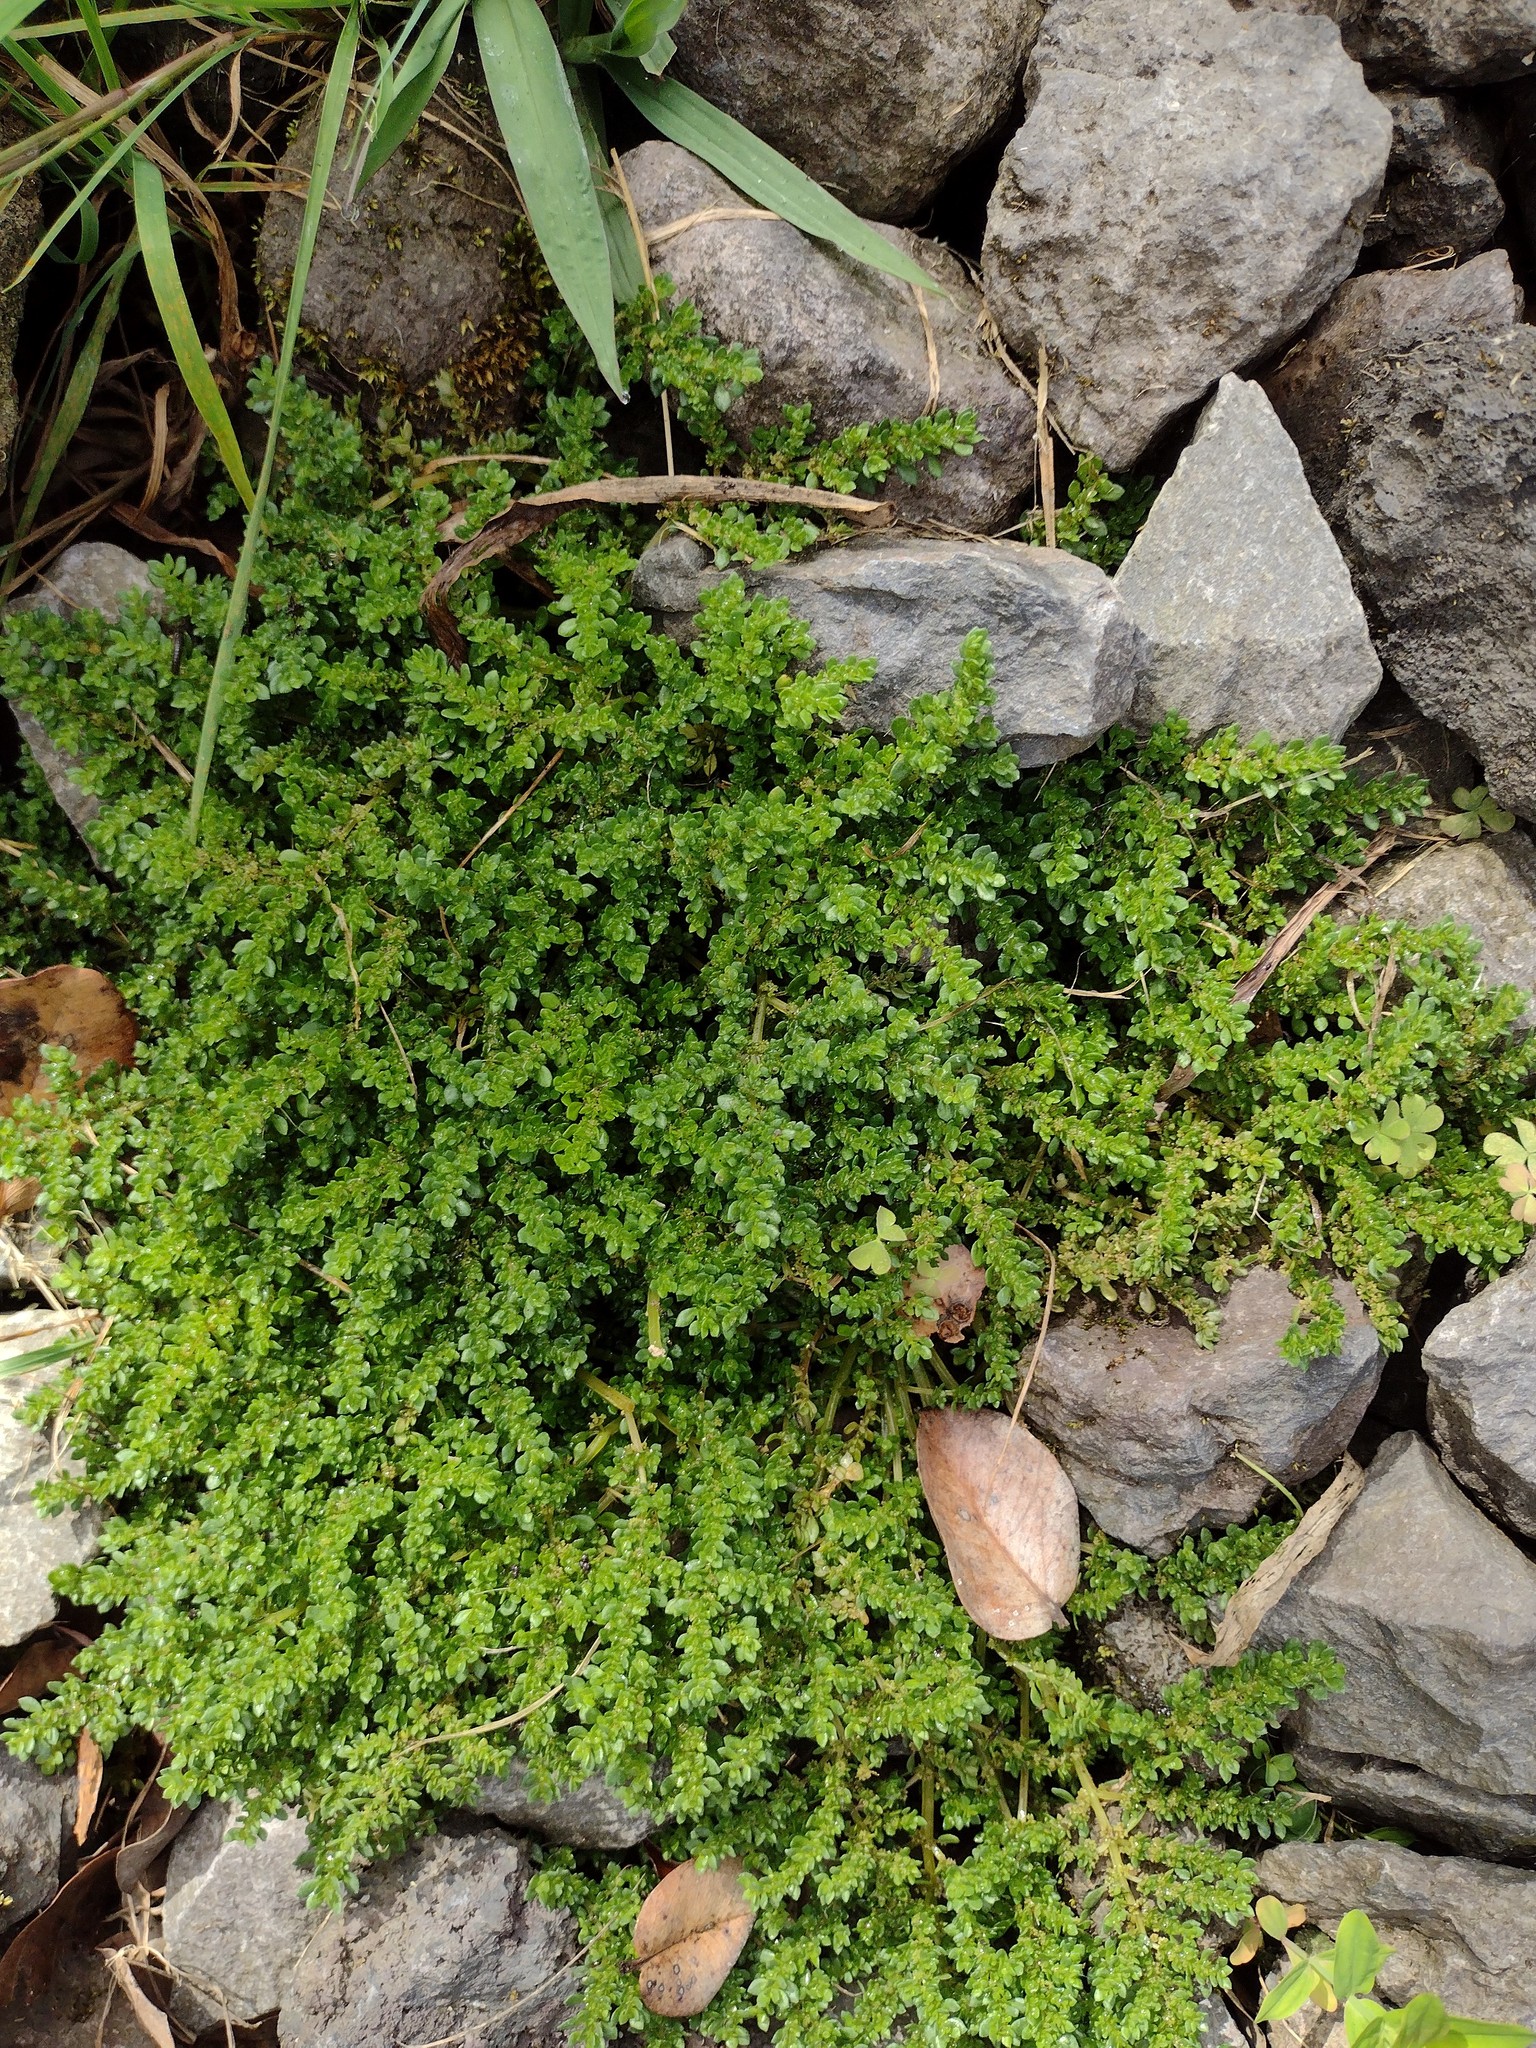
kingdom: Plantae
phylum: Tracheophyta
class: Magnoliopsida
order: Rosales
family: Urticaceae
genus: Pilea
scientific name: Pilea microphylla
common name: Artillery-plant
